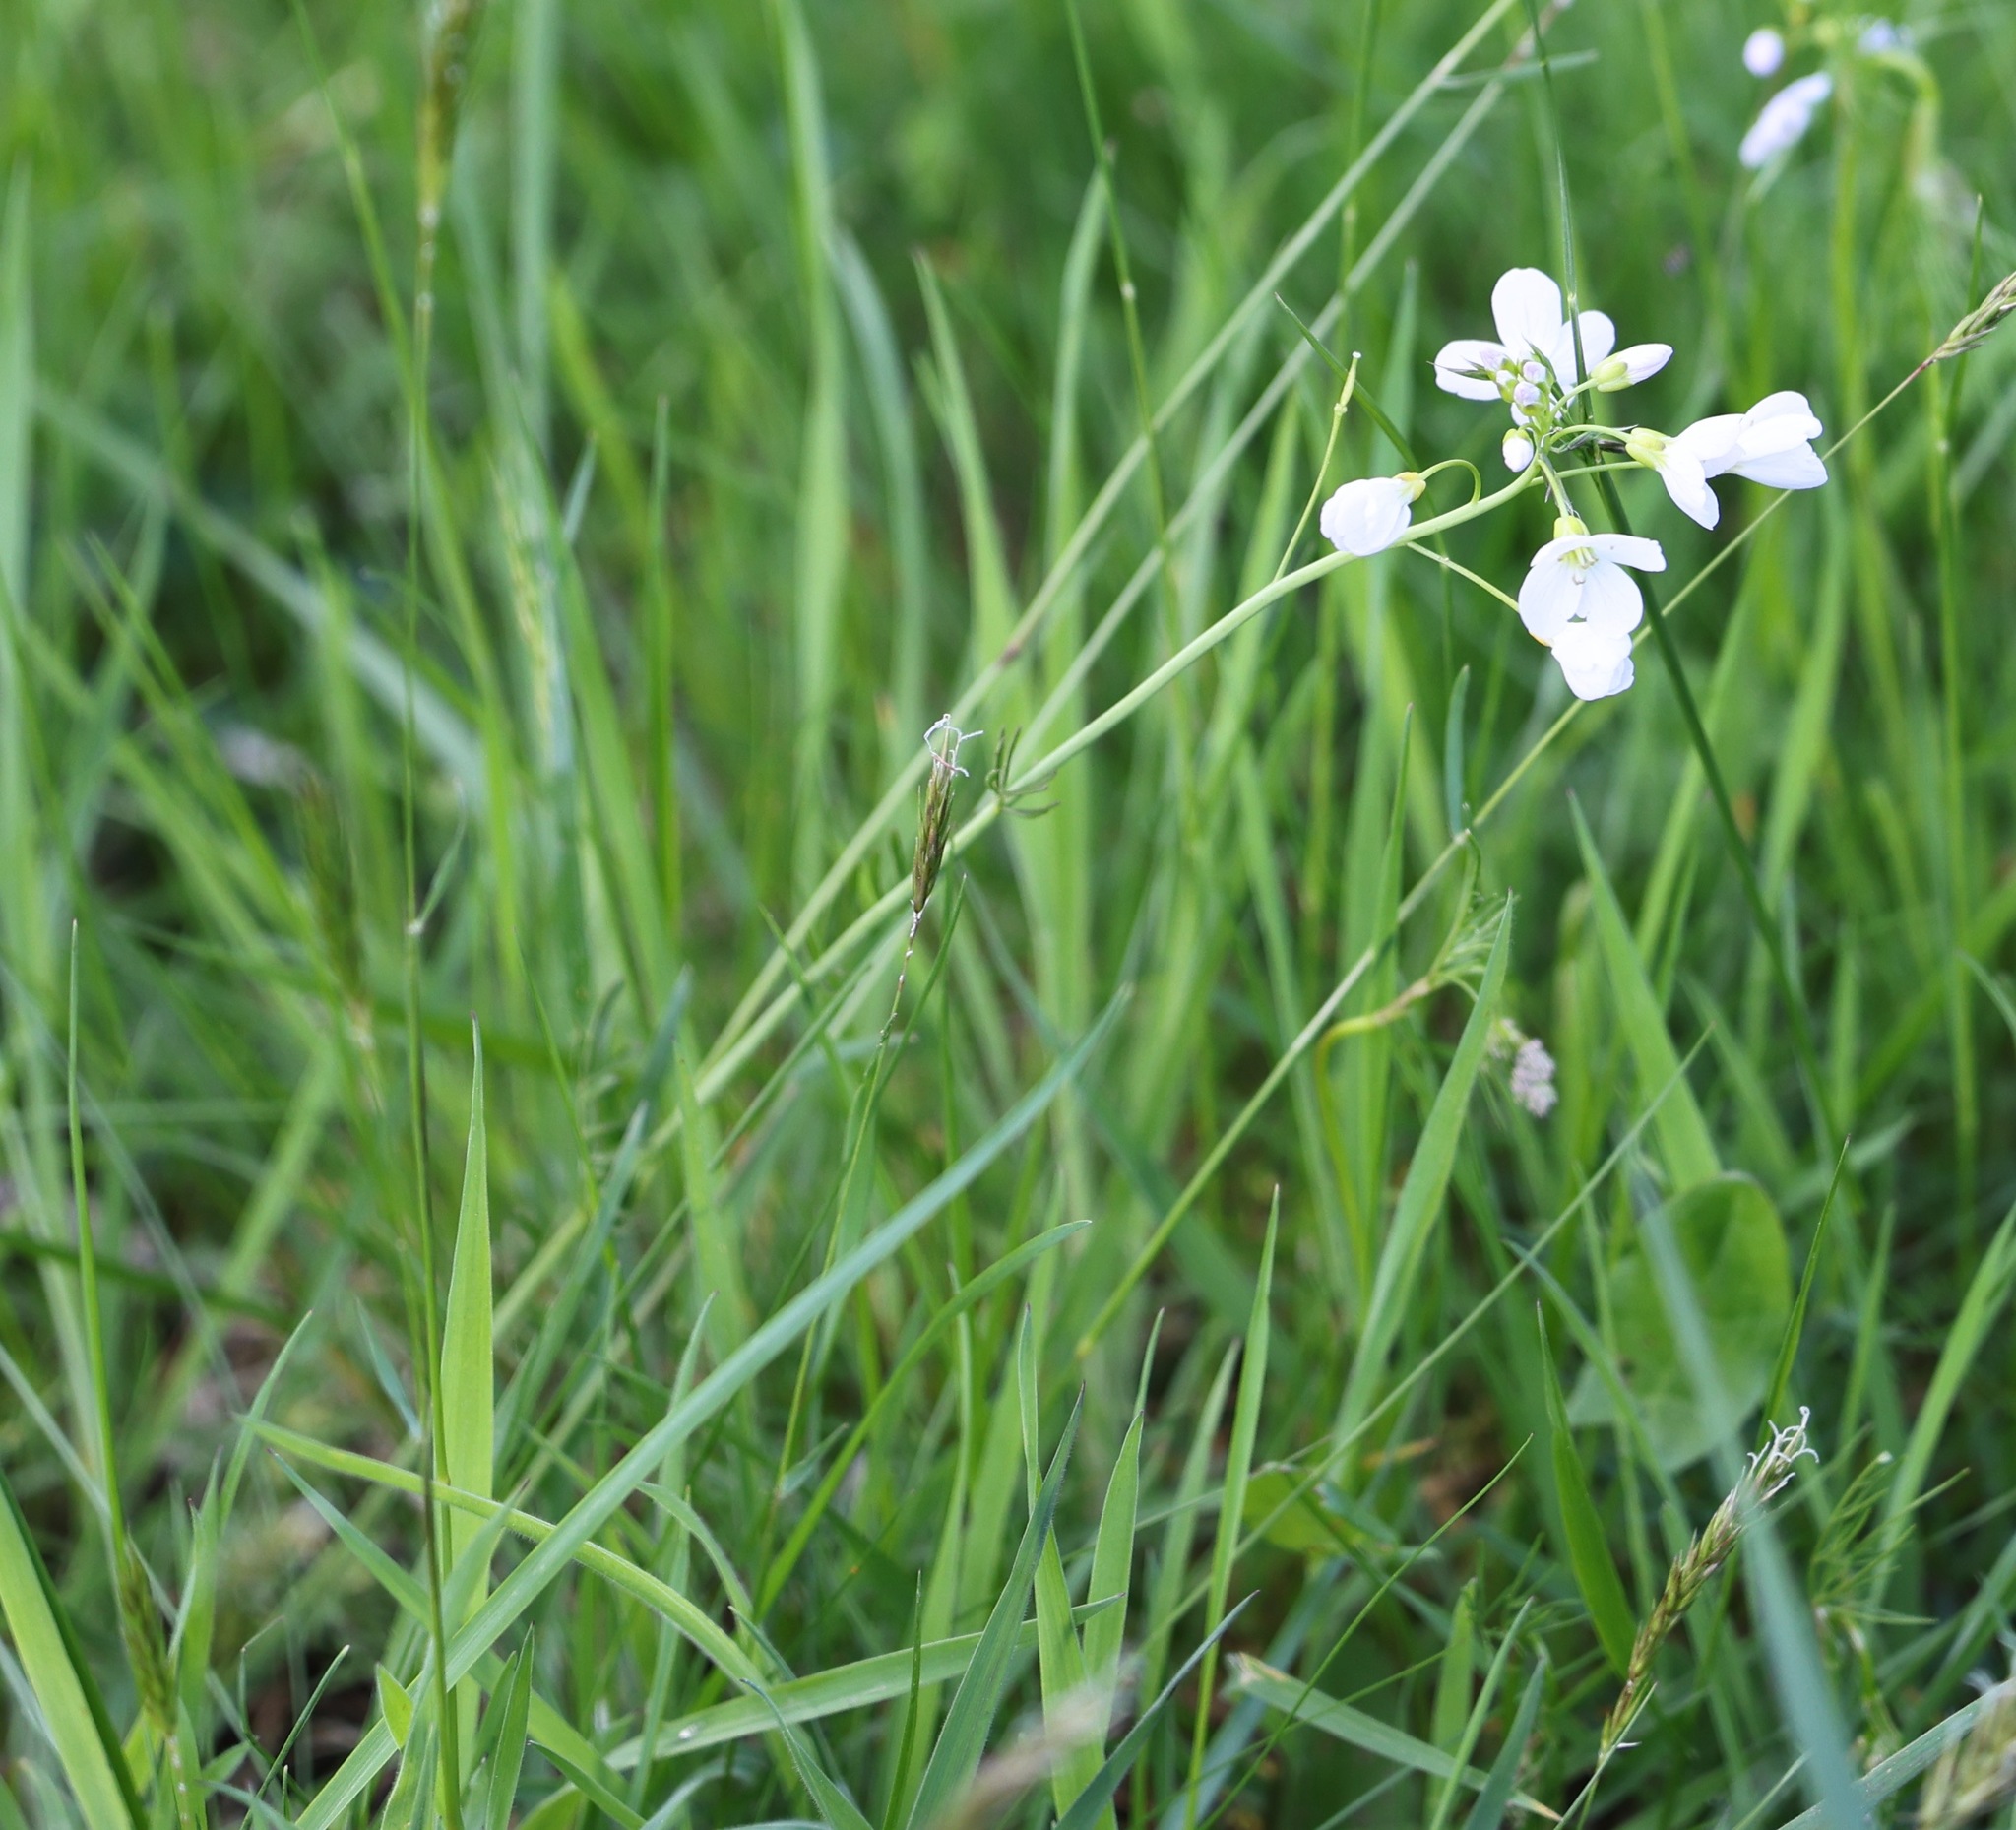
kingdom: Plantae
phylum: Tracheophyta
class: Magnoliopsida
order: Brassicales
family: Brassicaceae
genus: Cardamine
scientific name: Cardamine pratensis
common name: Cuckoo flower
